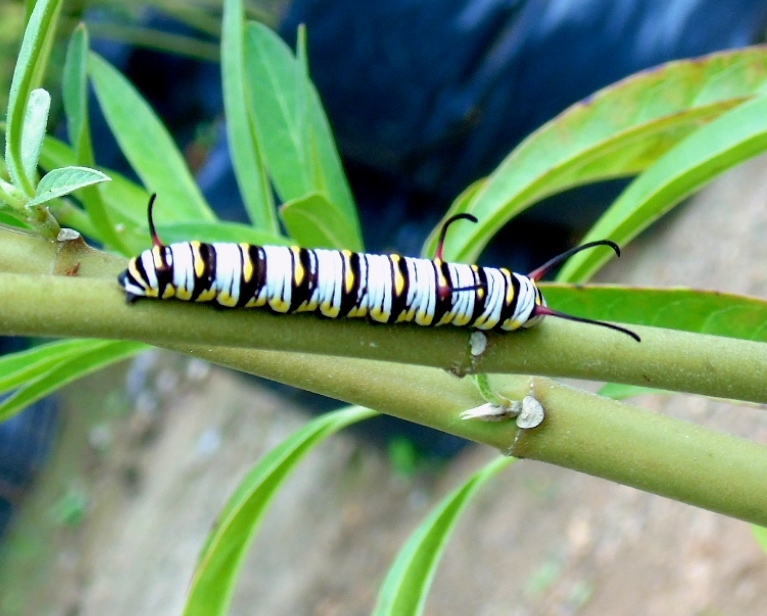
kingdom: Animalia
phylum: Arthropoda
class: Insecta
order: Lepidoptera
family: Nymphalidae
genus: Danaus
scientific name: Danaus gilippus
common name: Queen
